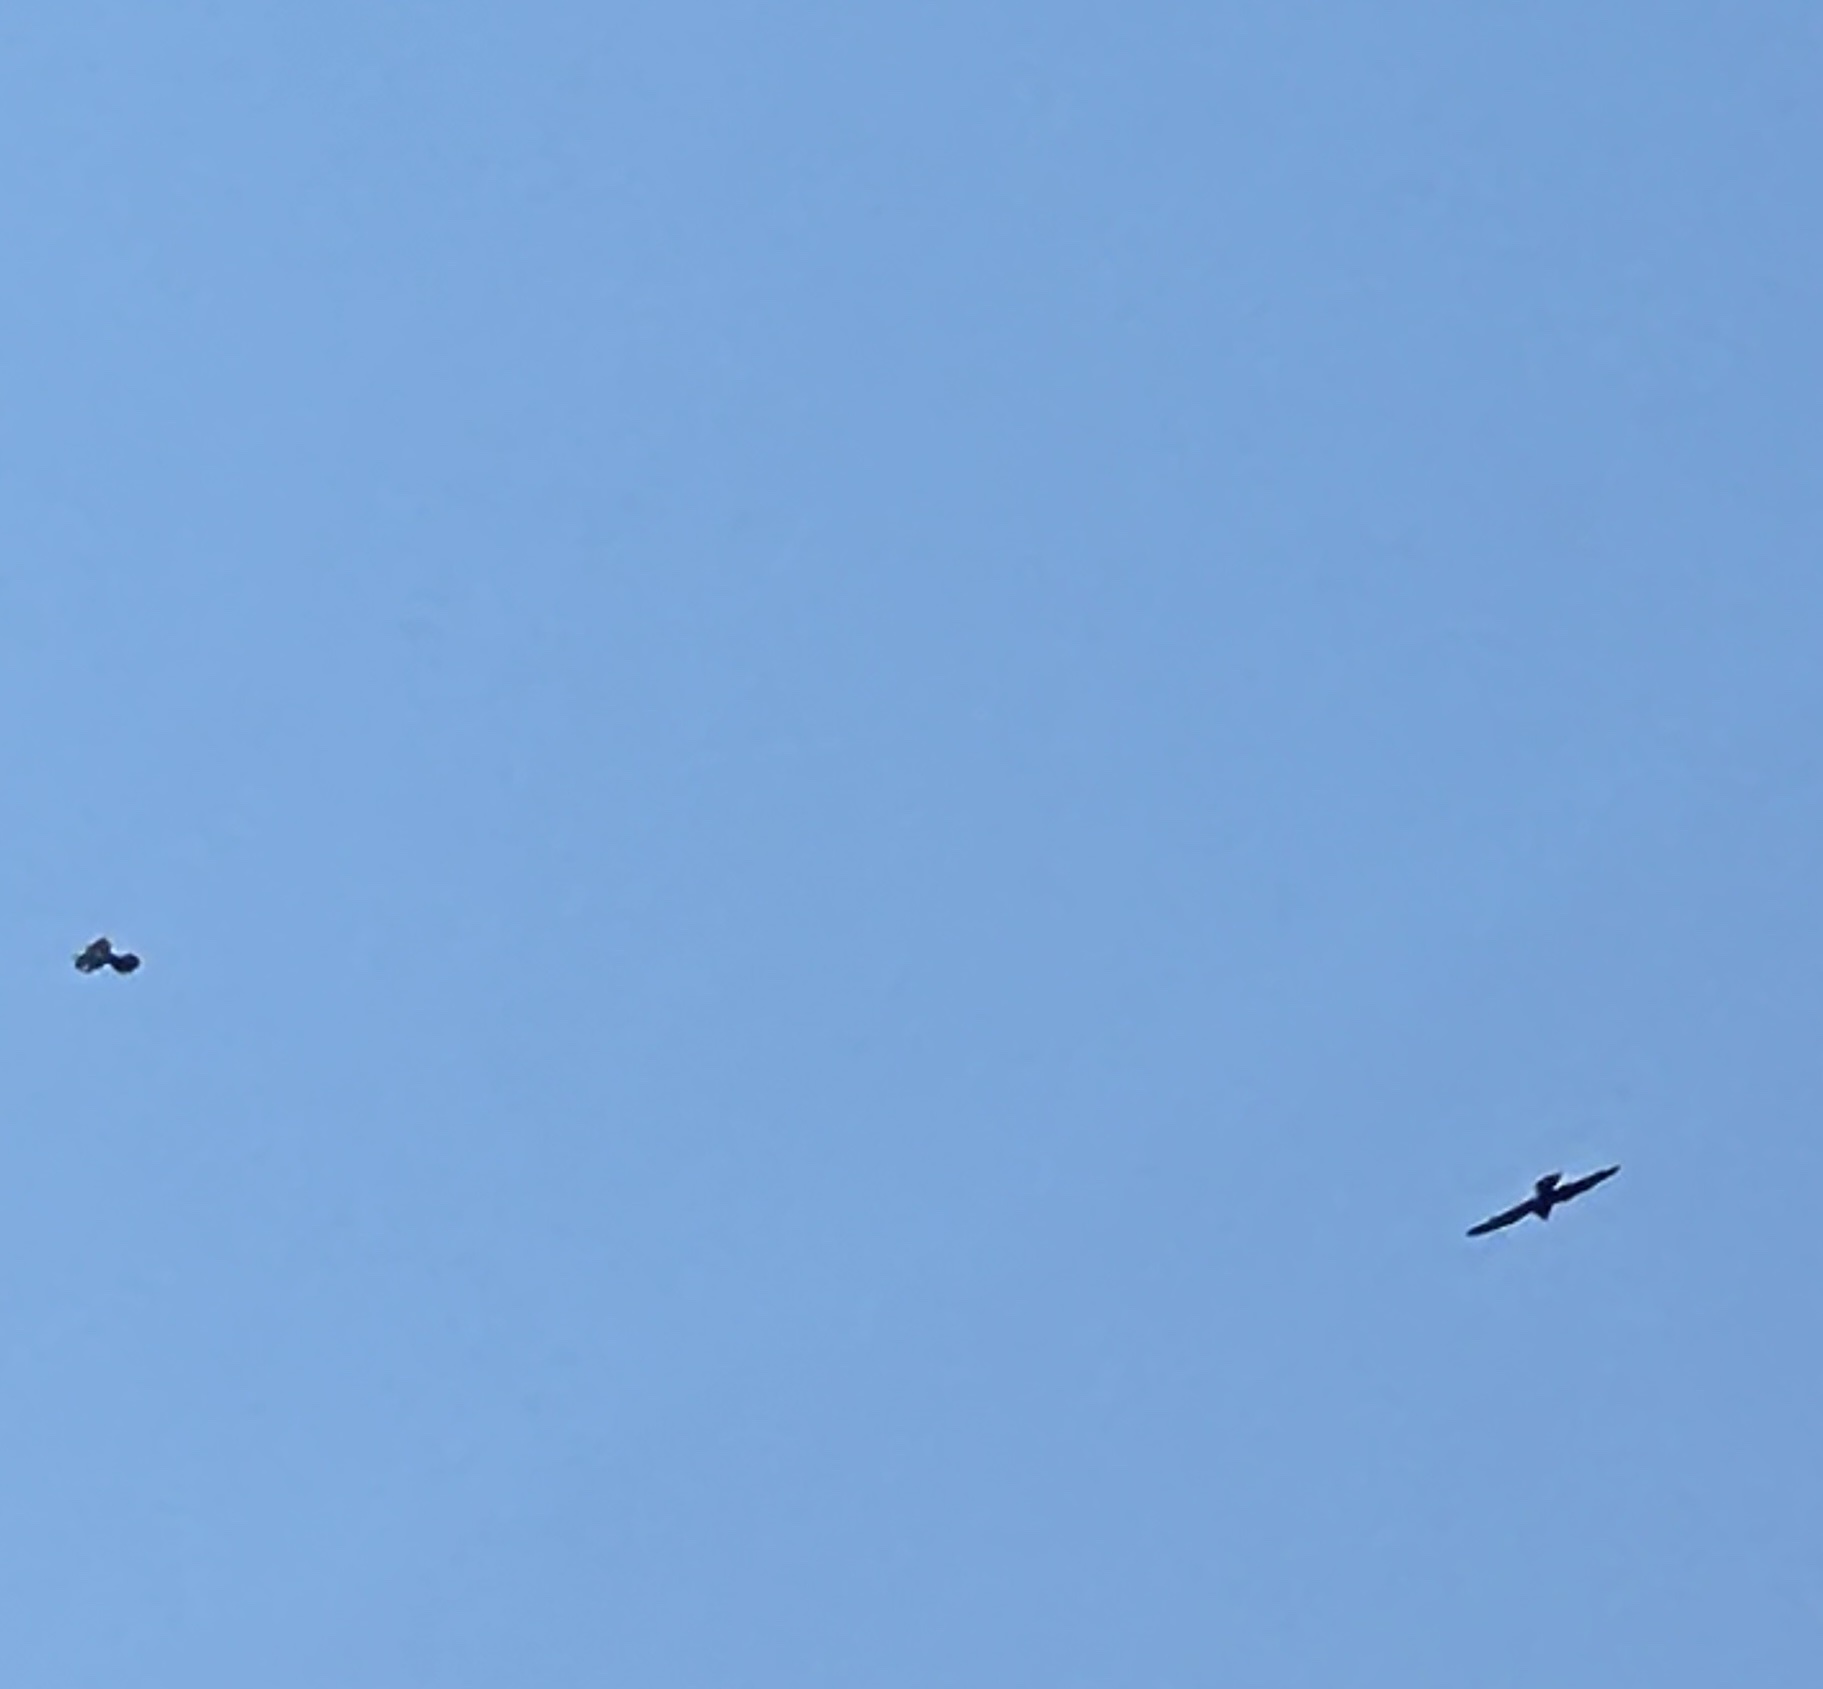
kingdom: Animalia
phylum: Chordata
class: Aves
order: Falconiformes
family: Falconidae
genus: Falco
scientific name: Falco eleonorae
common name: Eleonora's falcon
